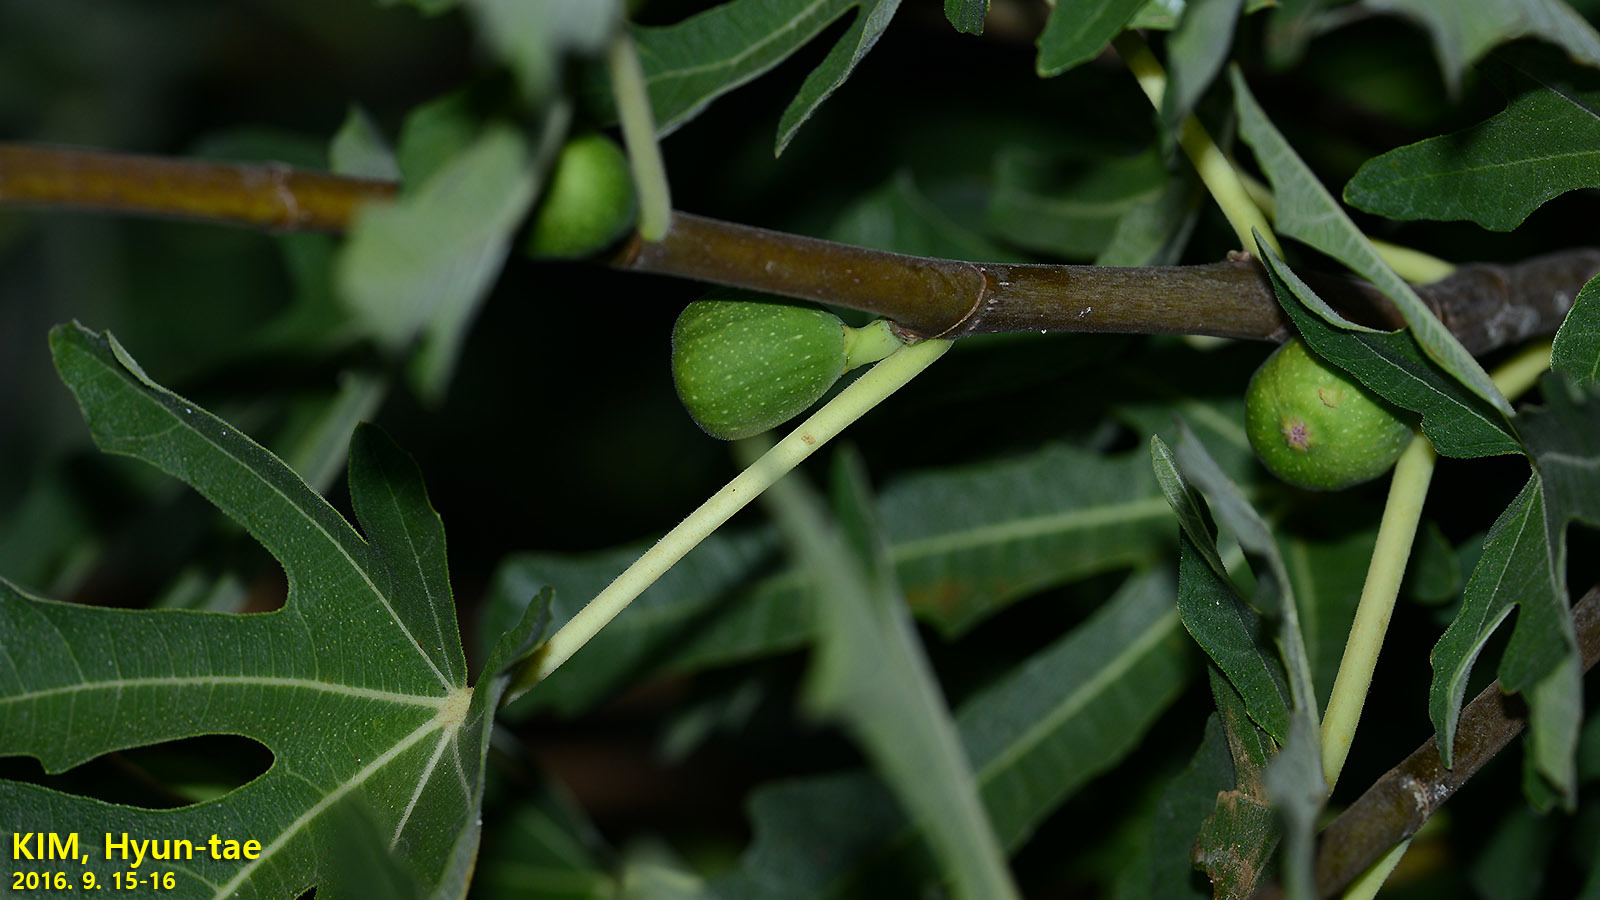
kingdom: Plantae
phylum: Tracheophyta
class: Magnoliopsida
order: Rosales
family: Moraceae
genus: Ficus
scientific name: Ficus carica
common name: Fig
